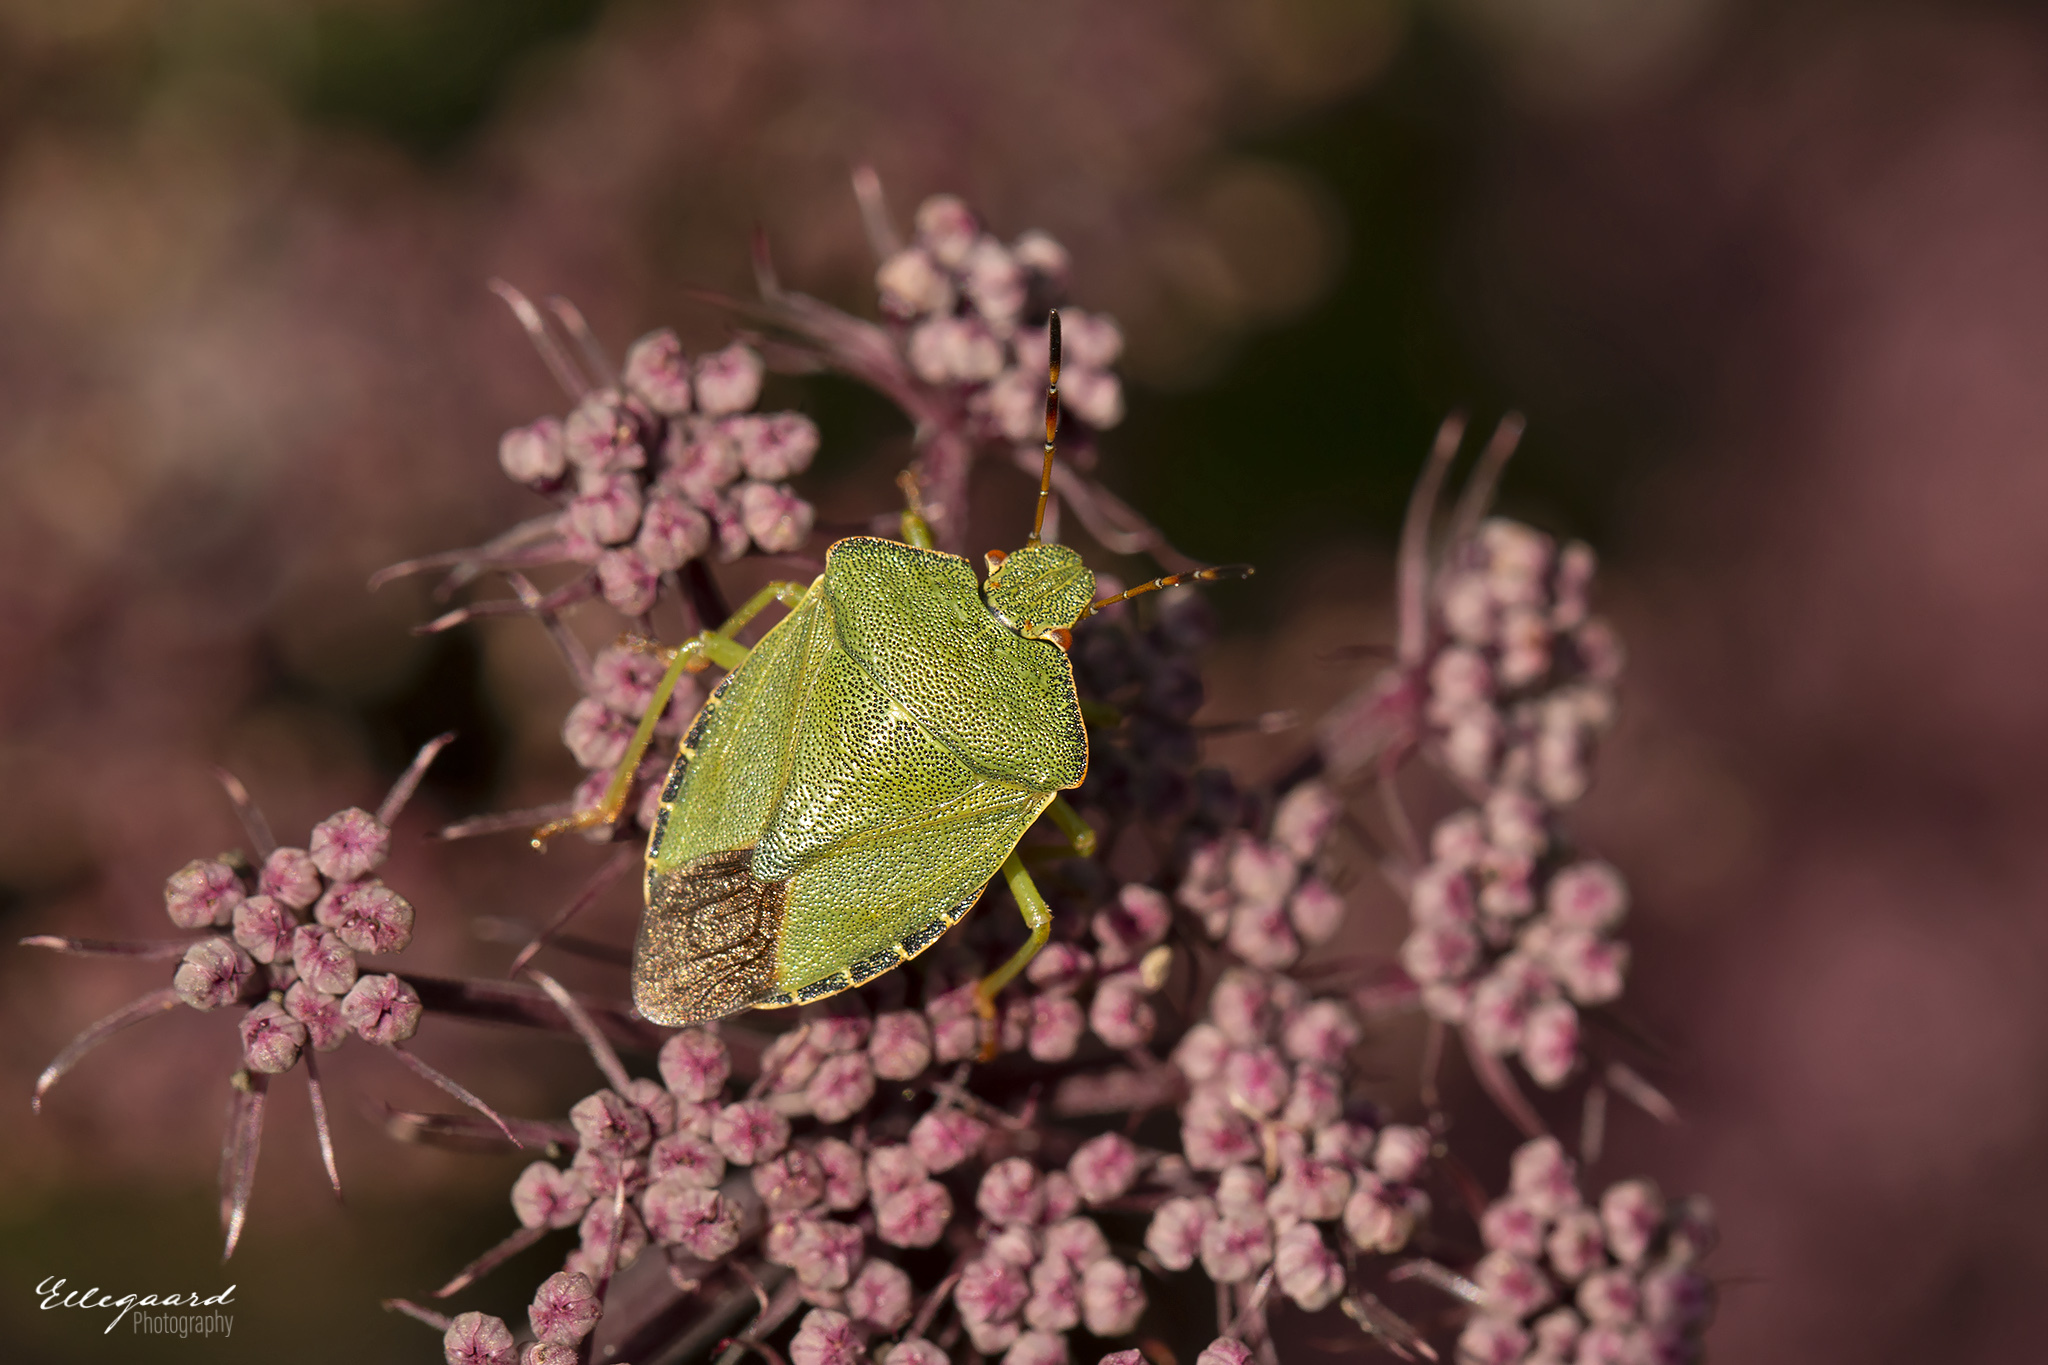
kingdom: Animalia
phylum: Arthropoda
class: Insecta
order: Hemiptera
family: Pentatomidae
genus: Palomena
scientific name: Palomena prasina
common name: Green shieldbug
